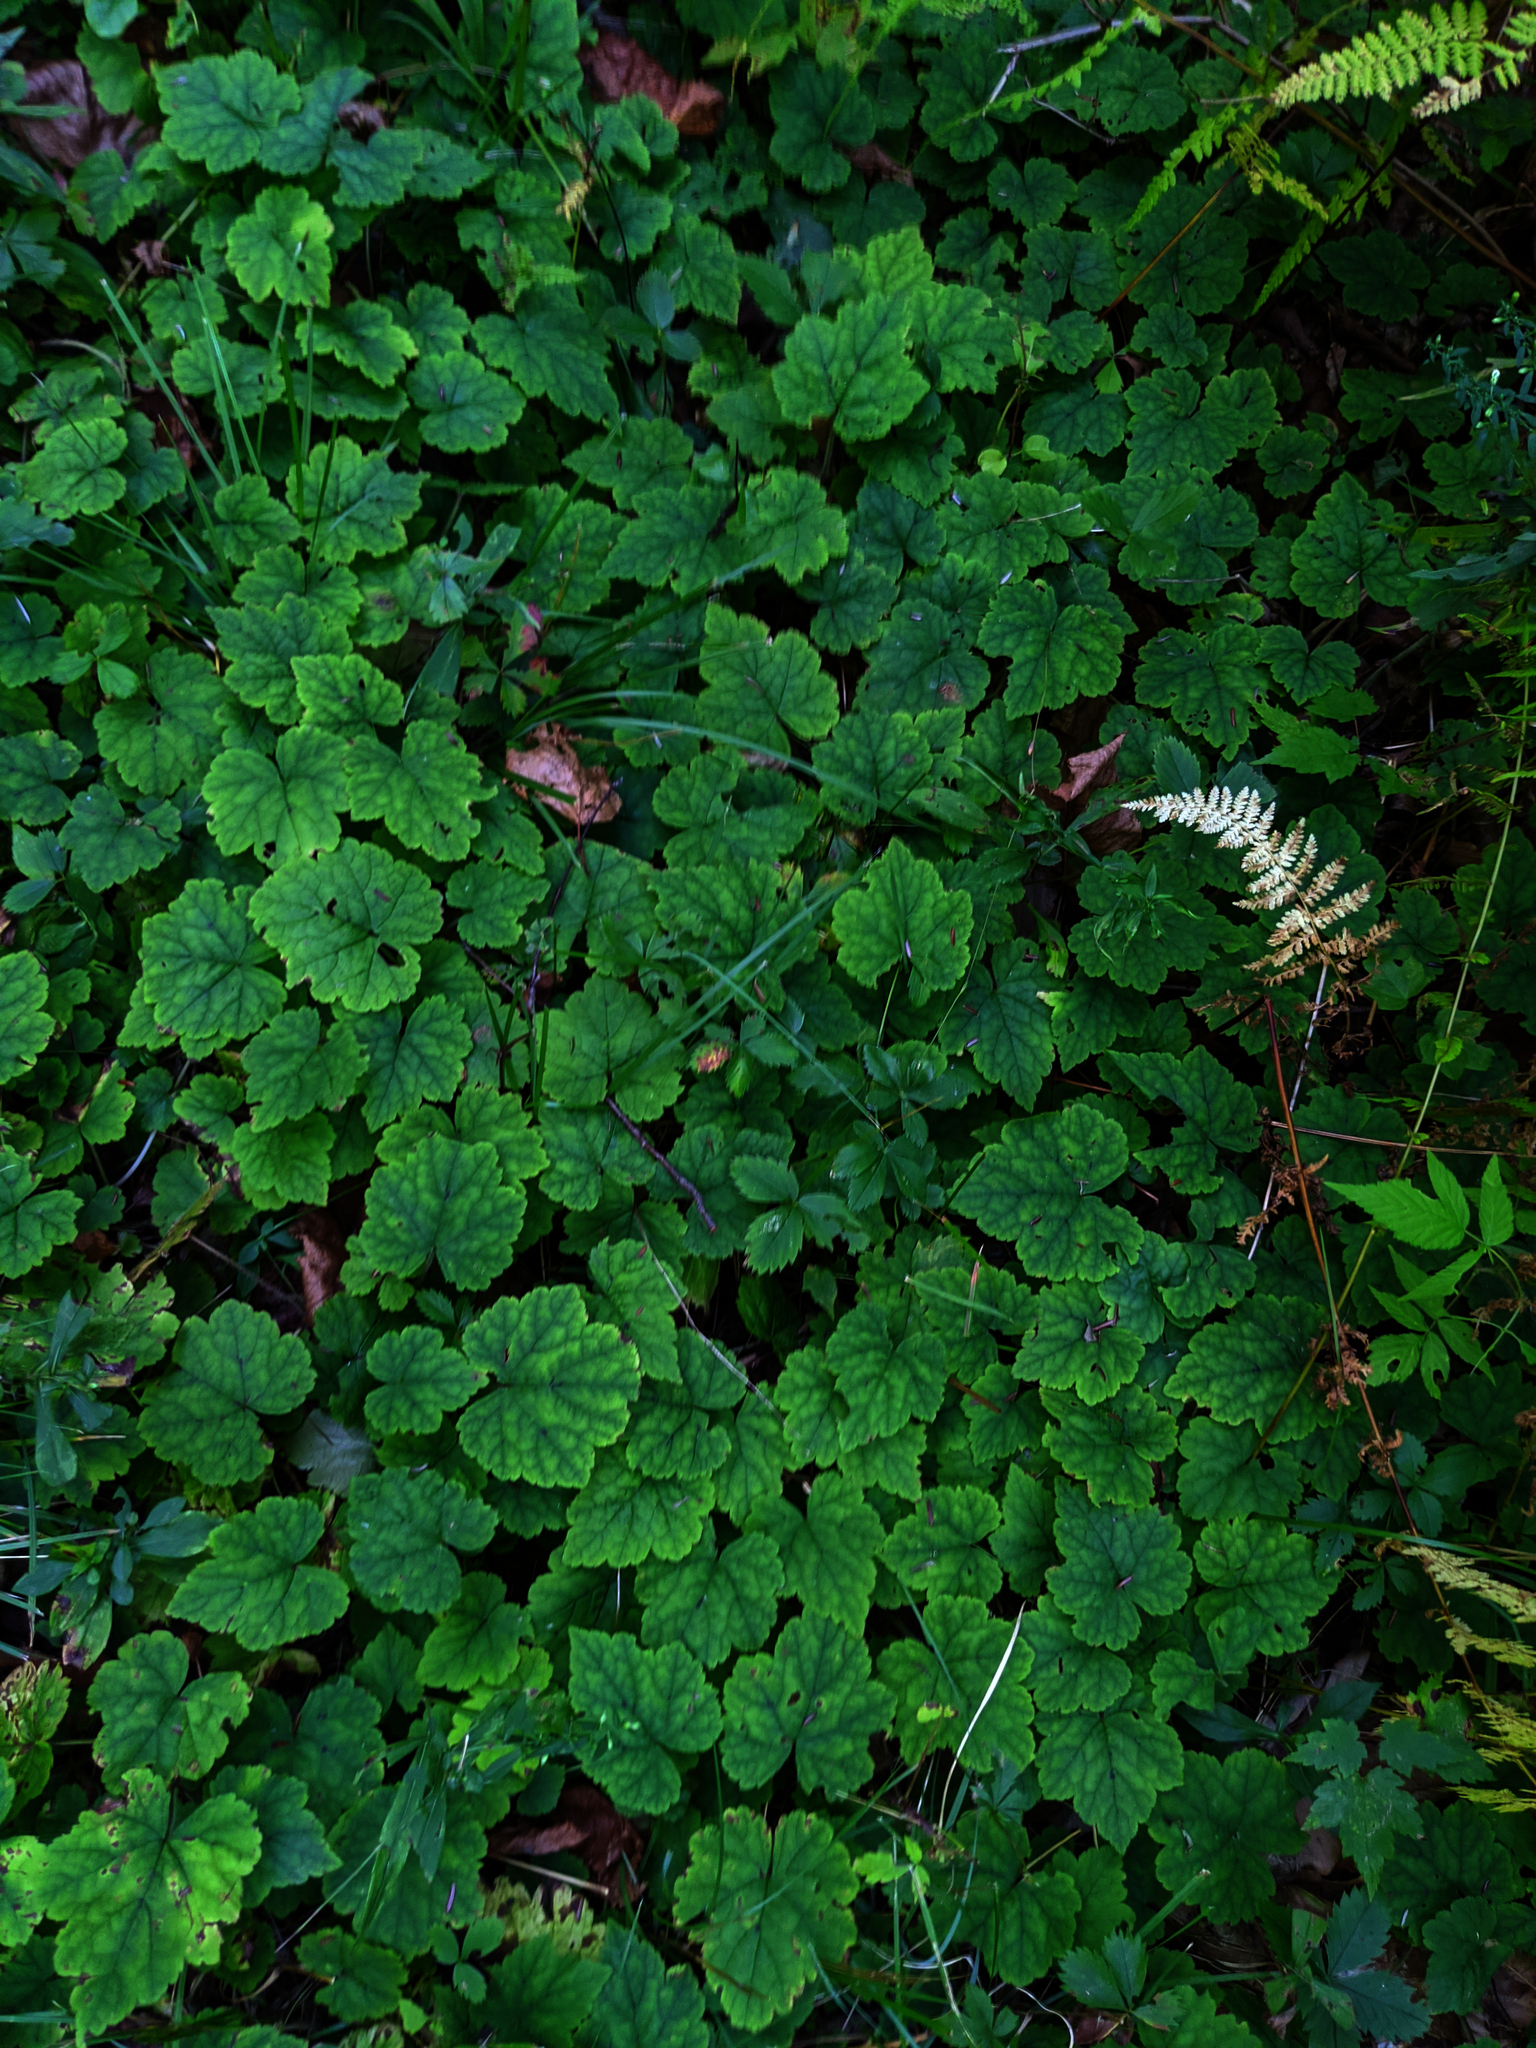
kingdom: Plantae
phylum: Tracheophyta
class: Magnoliopsida
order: Saxifragales
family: Saxifragaceae
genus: Tiarella
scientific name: Tiarella stolonifera
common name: Stoloniferous foamflower
